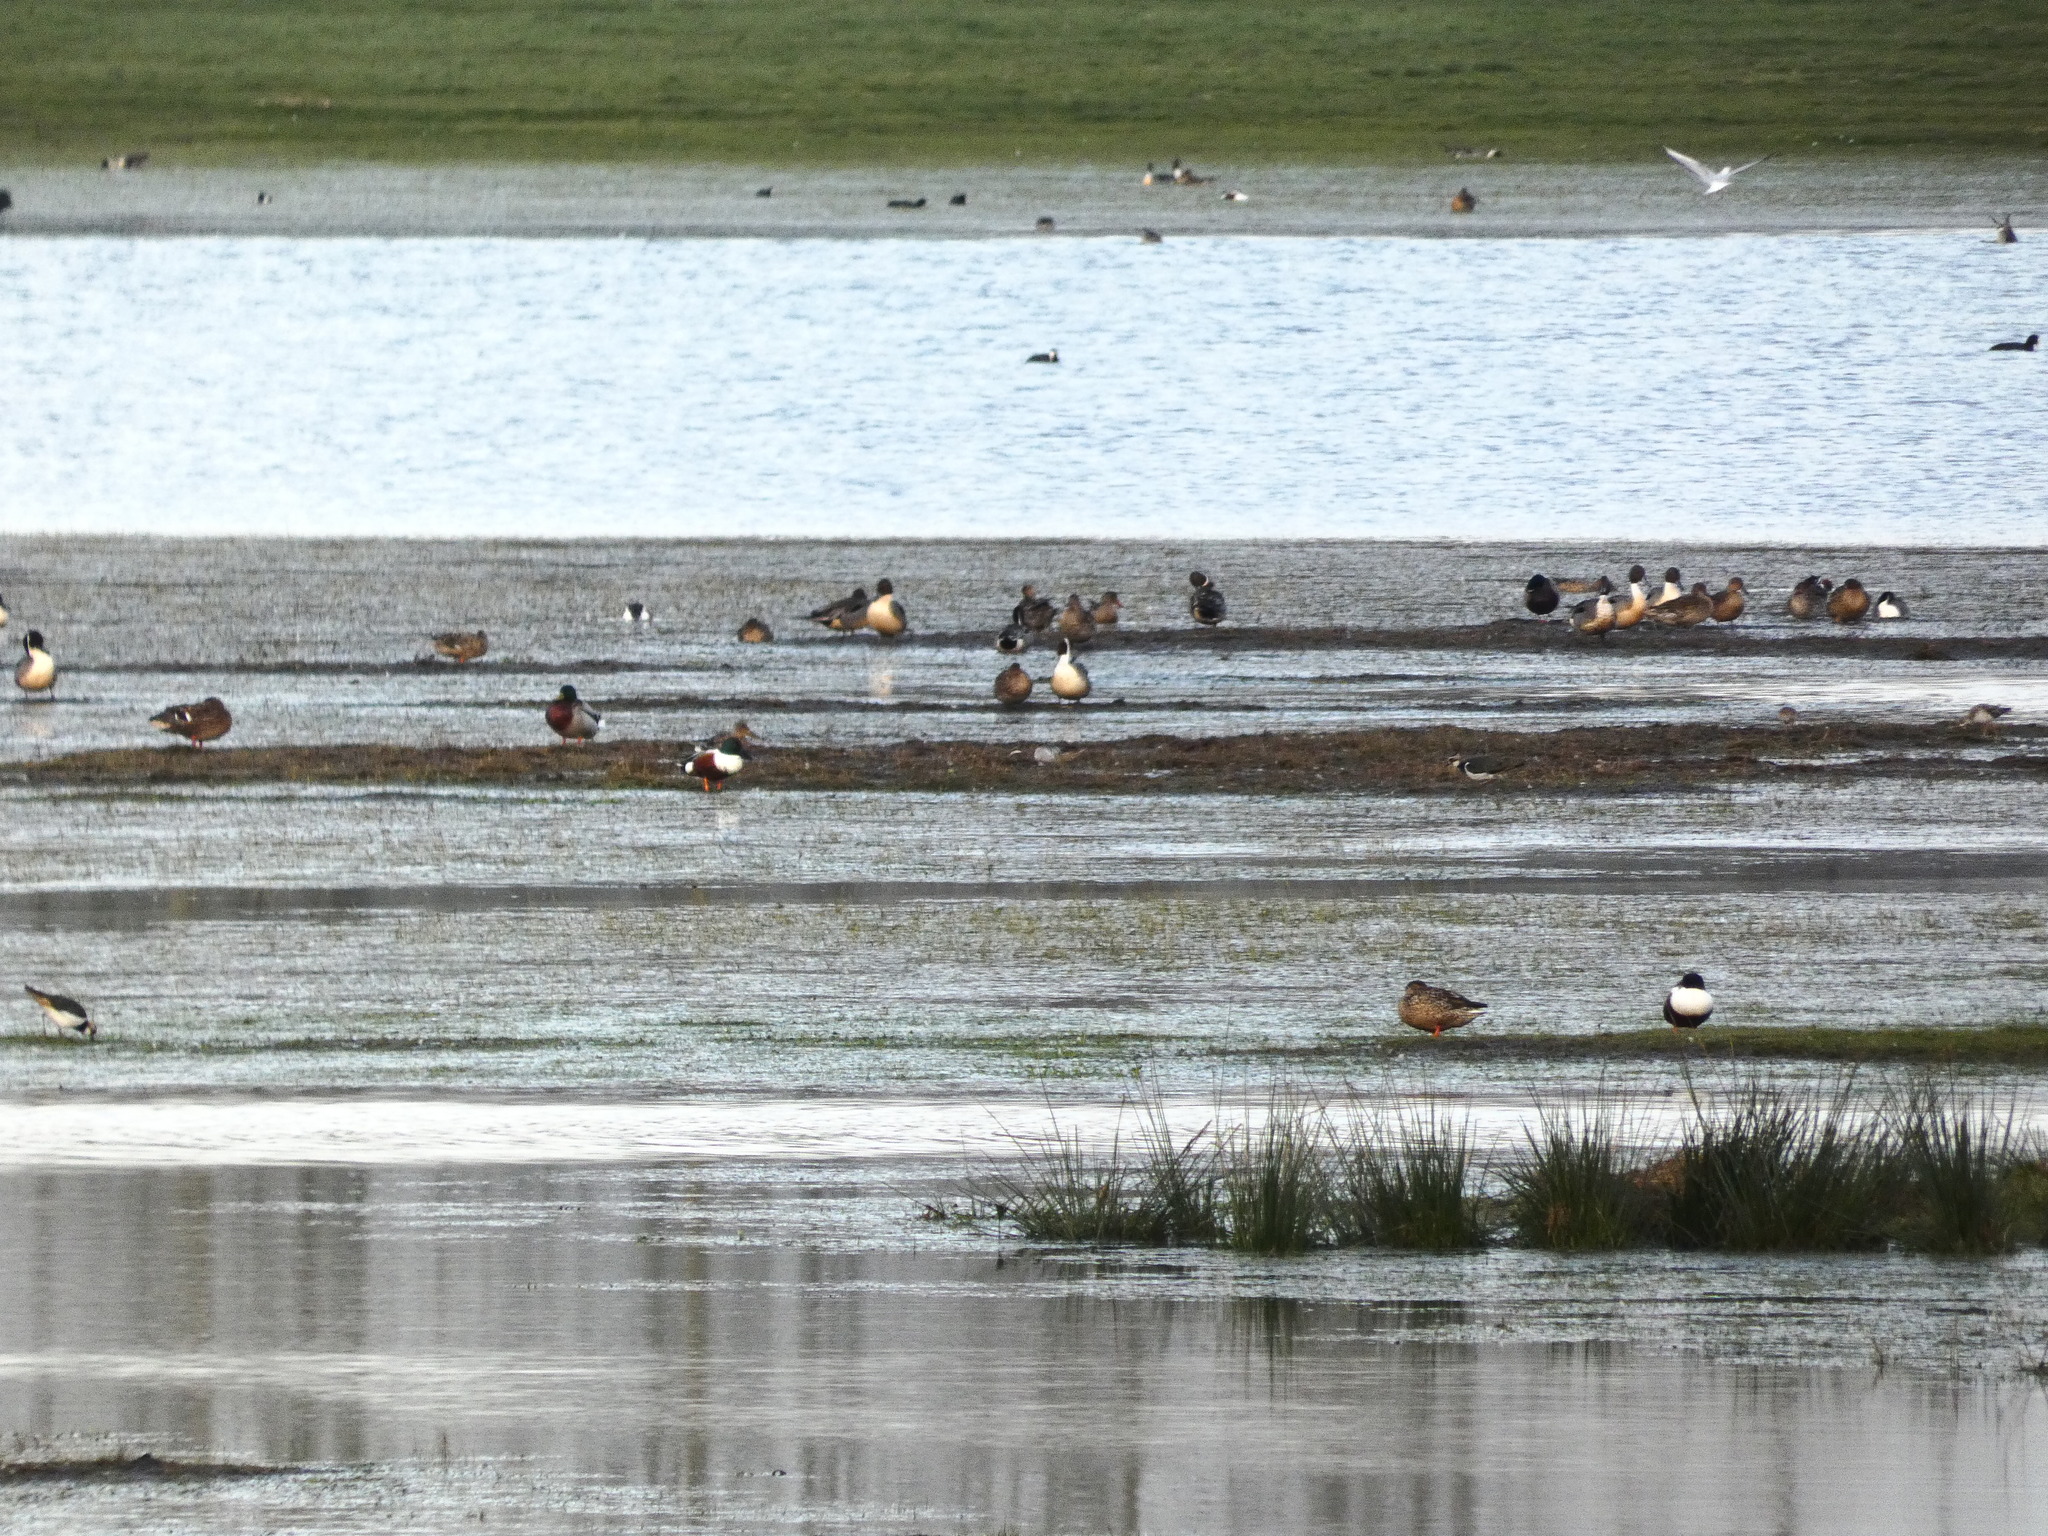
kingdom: Animalia
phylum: Chordata
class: Aves
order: Anseriformes
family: Anatidae
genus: Anas
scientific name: Anas platyrhynchos
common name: Mallard
